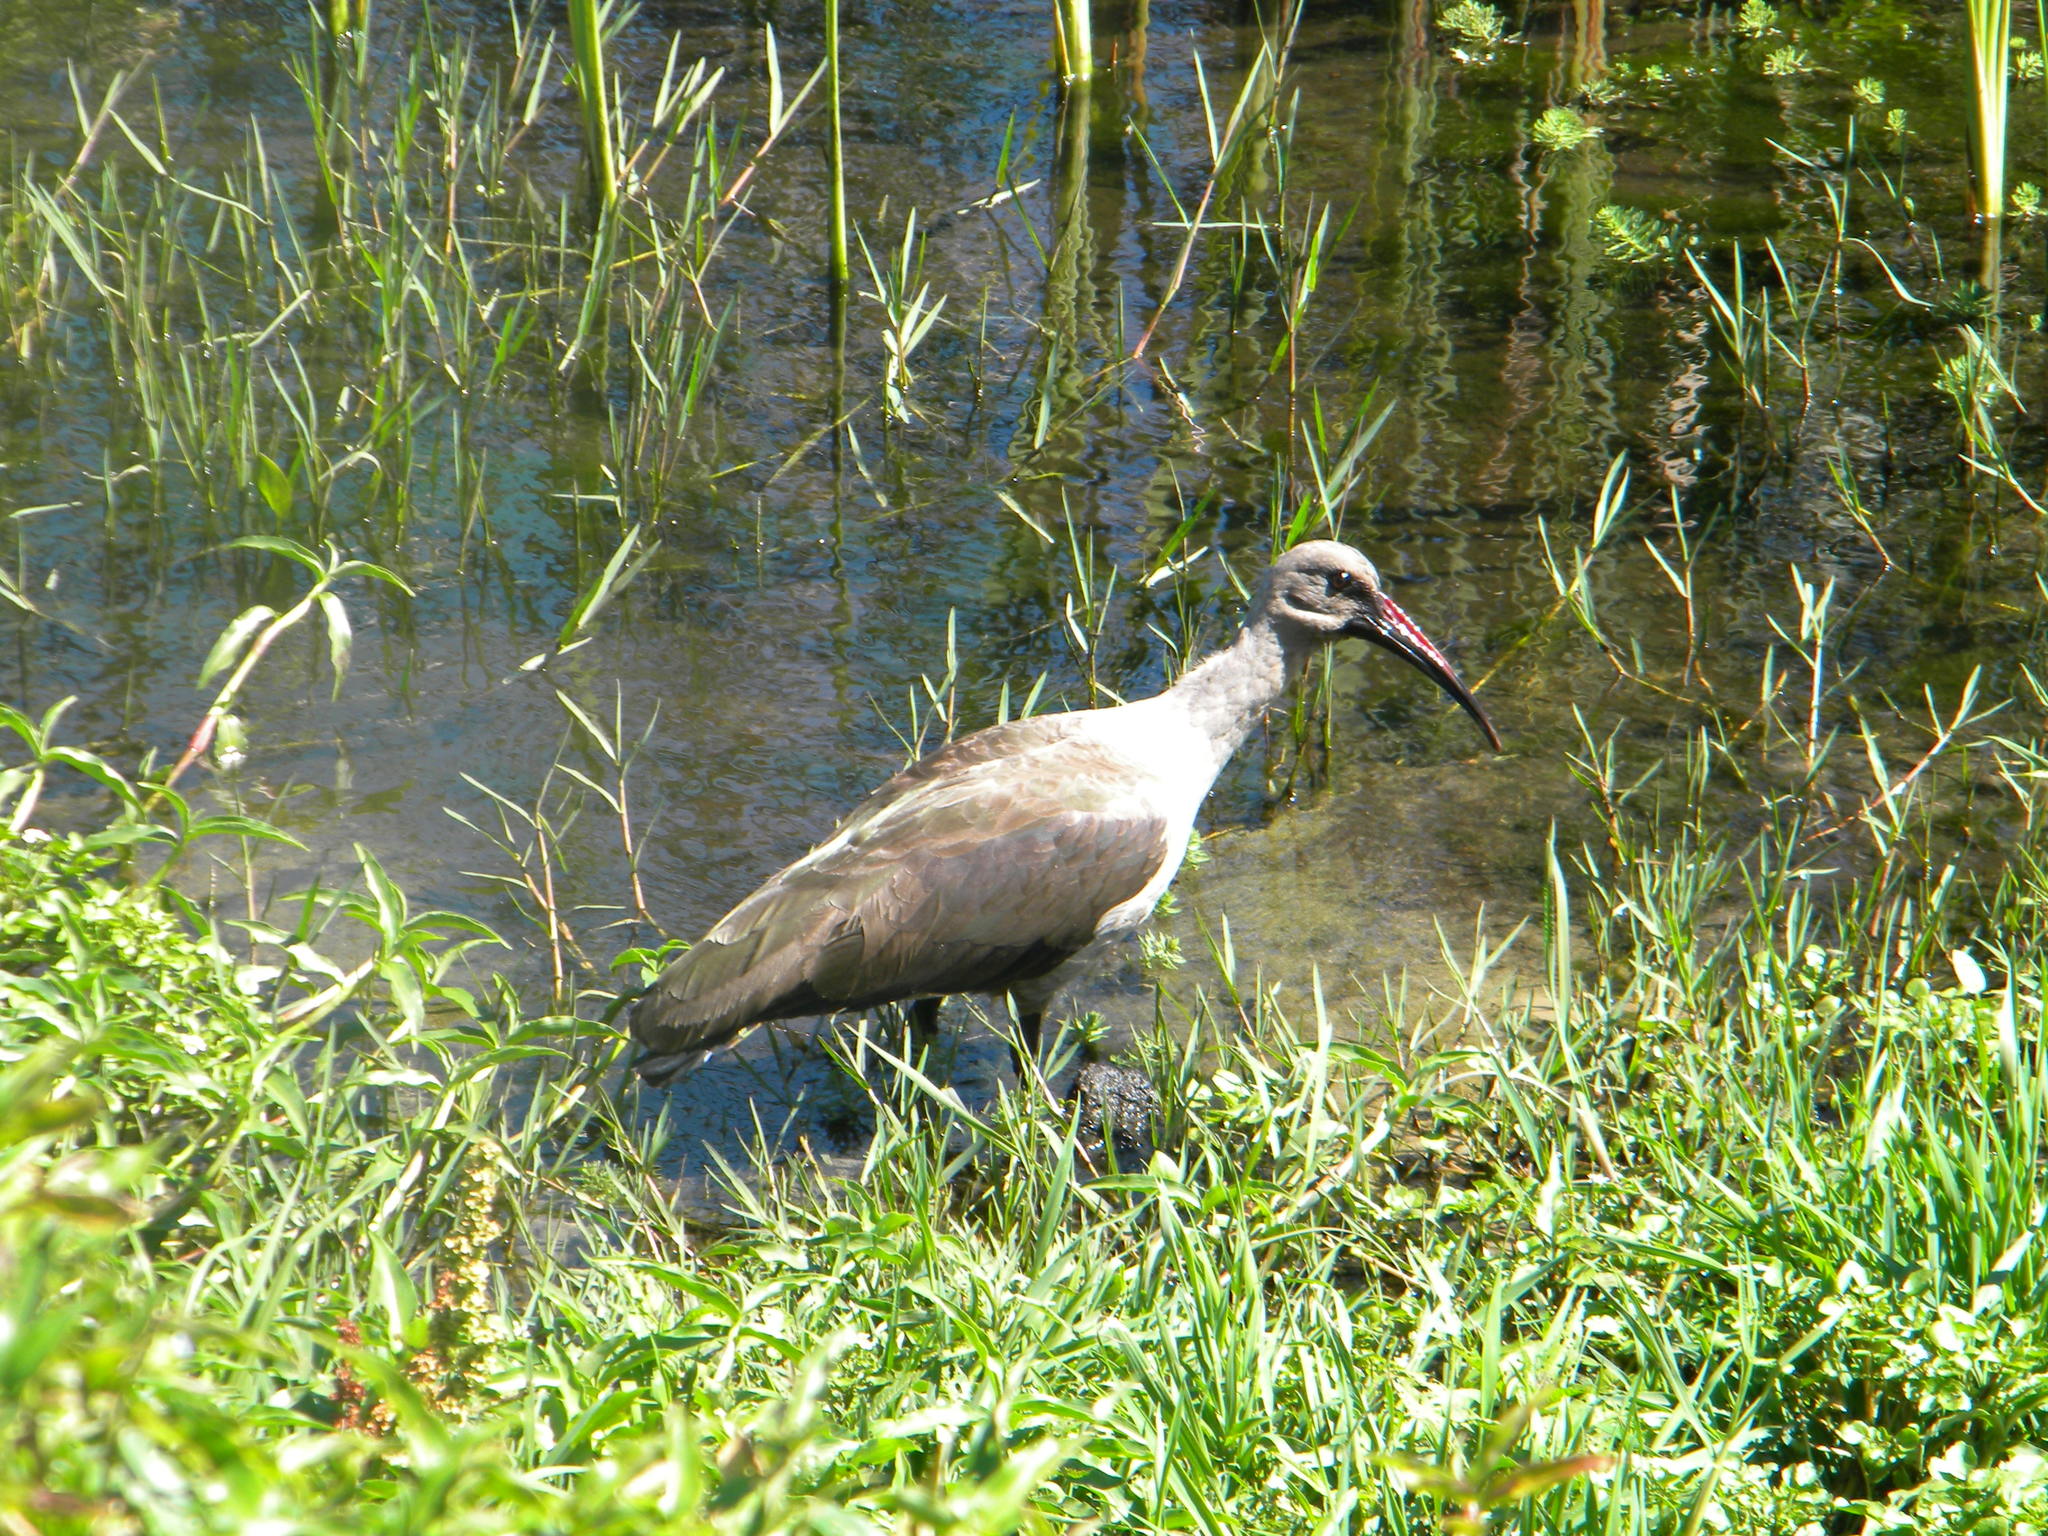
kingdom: Animalia
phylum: Chordata
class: Aves
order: Pelecaniformes
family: Threskiornithidae
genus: Bostrychia
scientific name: Bostrychia hagedash
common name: Hadada ibis
